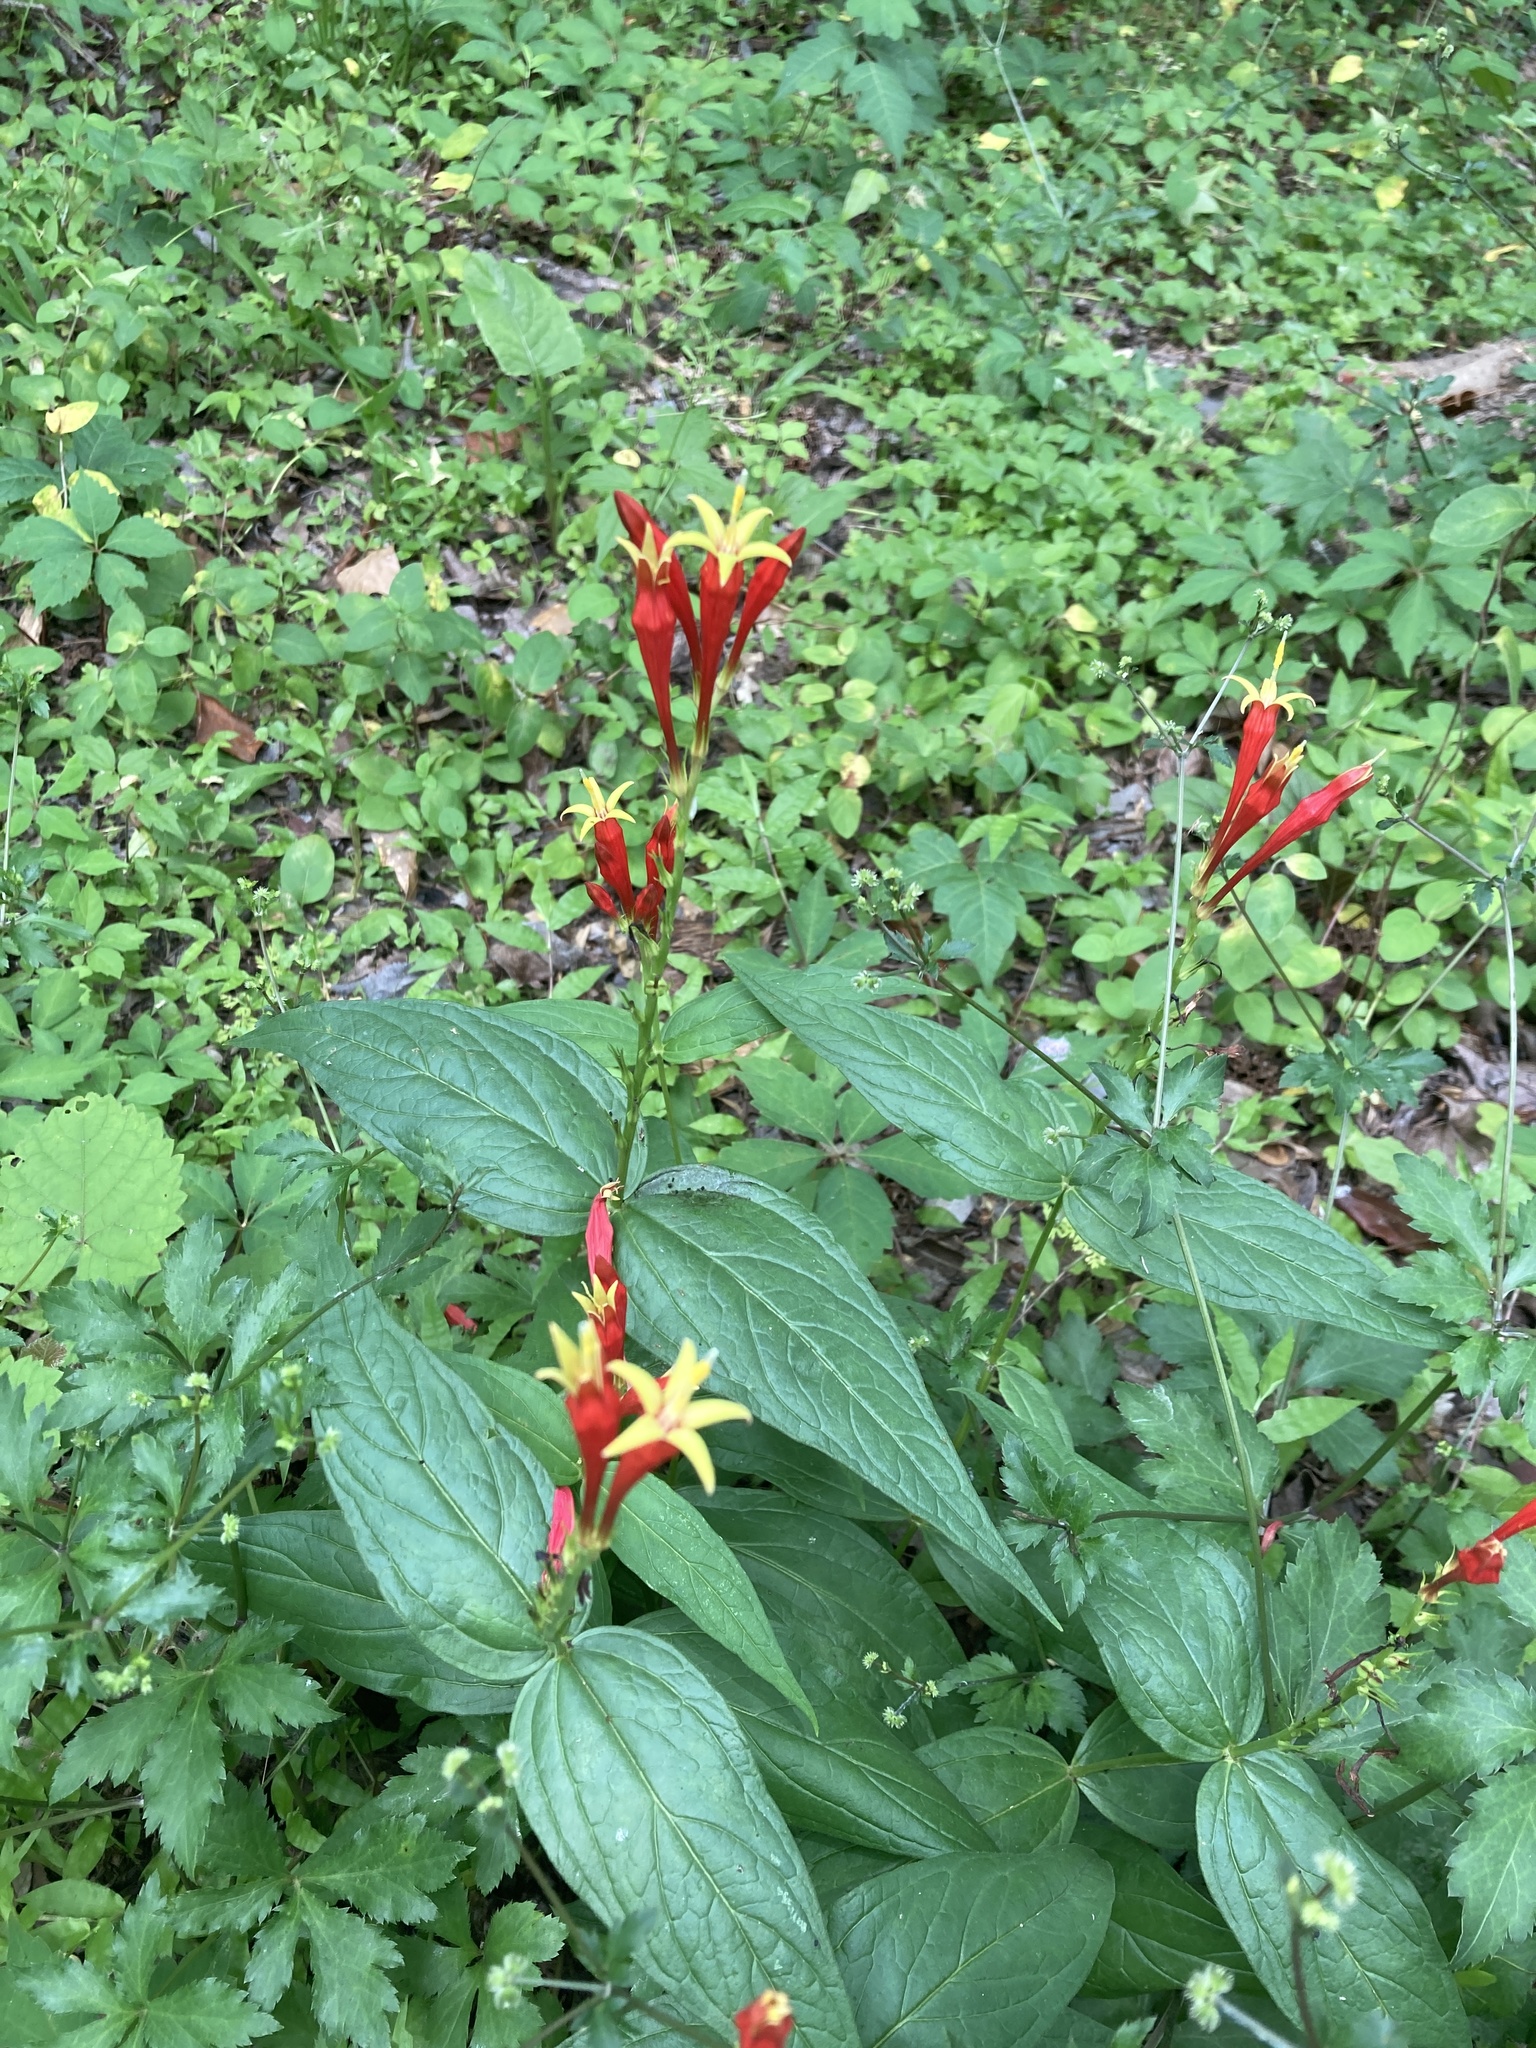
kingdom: Plantae
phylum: Tracheophyta
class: Magnoliopsida
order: Gentianales
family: Loganiaceae
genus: Spigelia
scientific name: Spigelia marilandica
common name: Indian-pink
